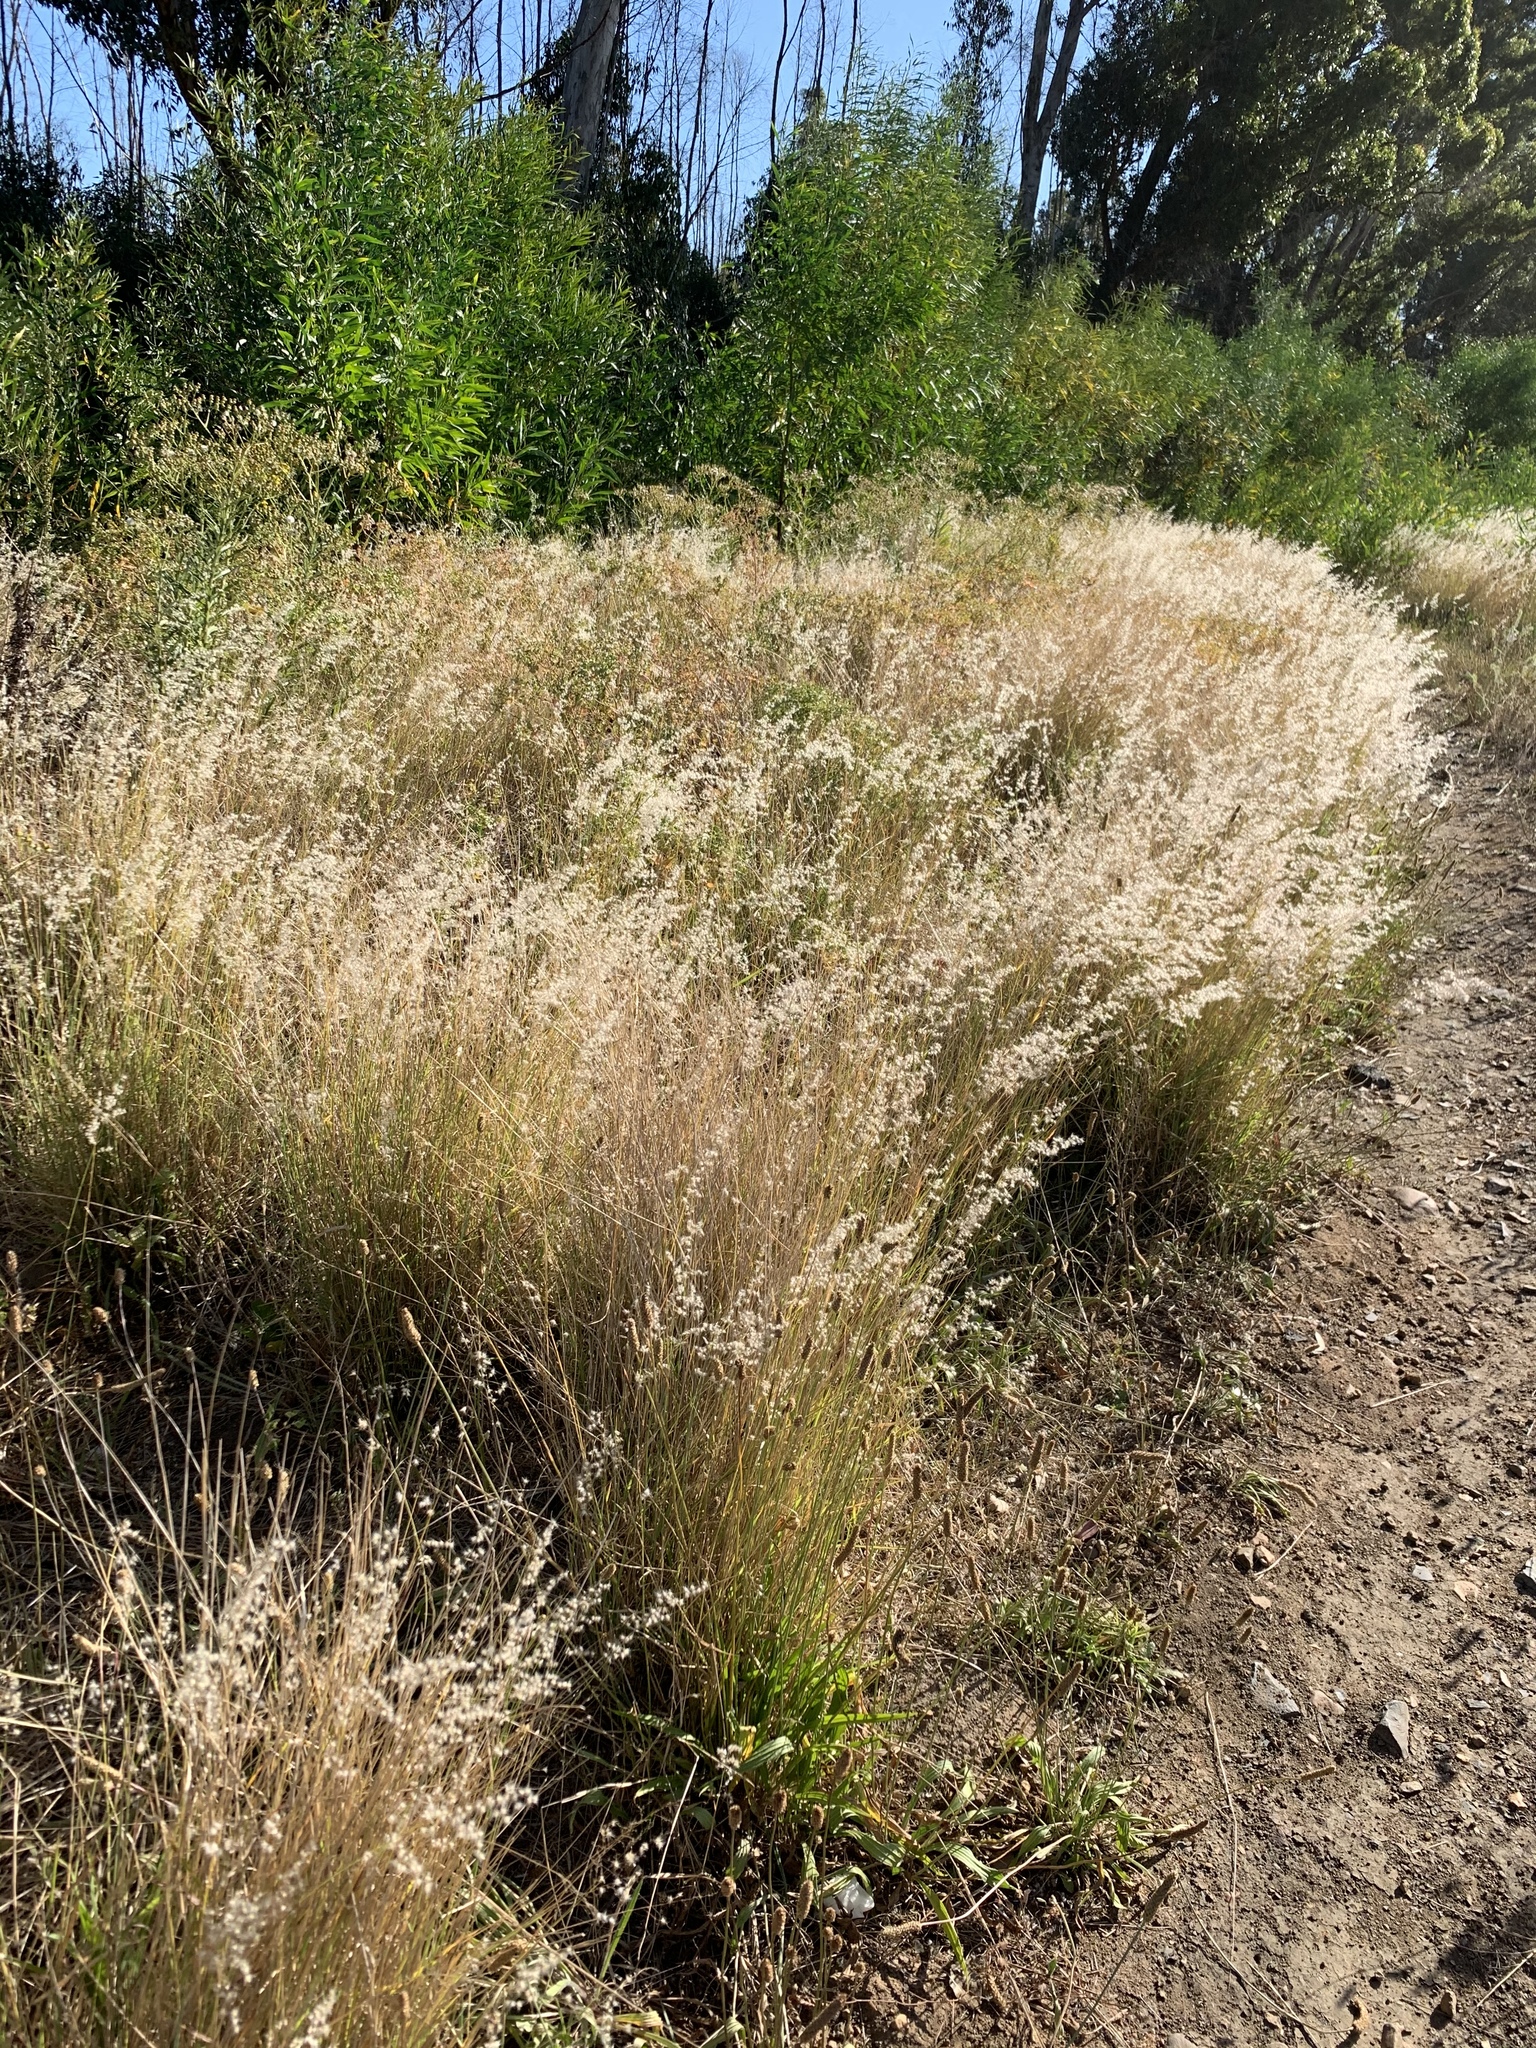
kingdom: Plantae
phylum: Tracheophyta
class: Liliopsida
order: Poales
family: Poaceae
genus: Melinis
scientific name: Melinis repens
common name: Rose natal grass
